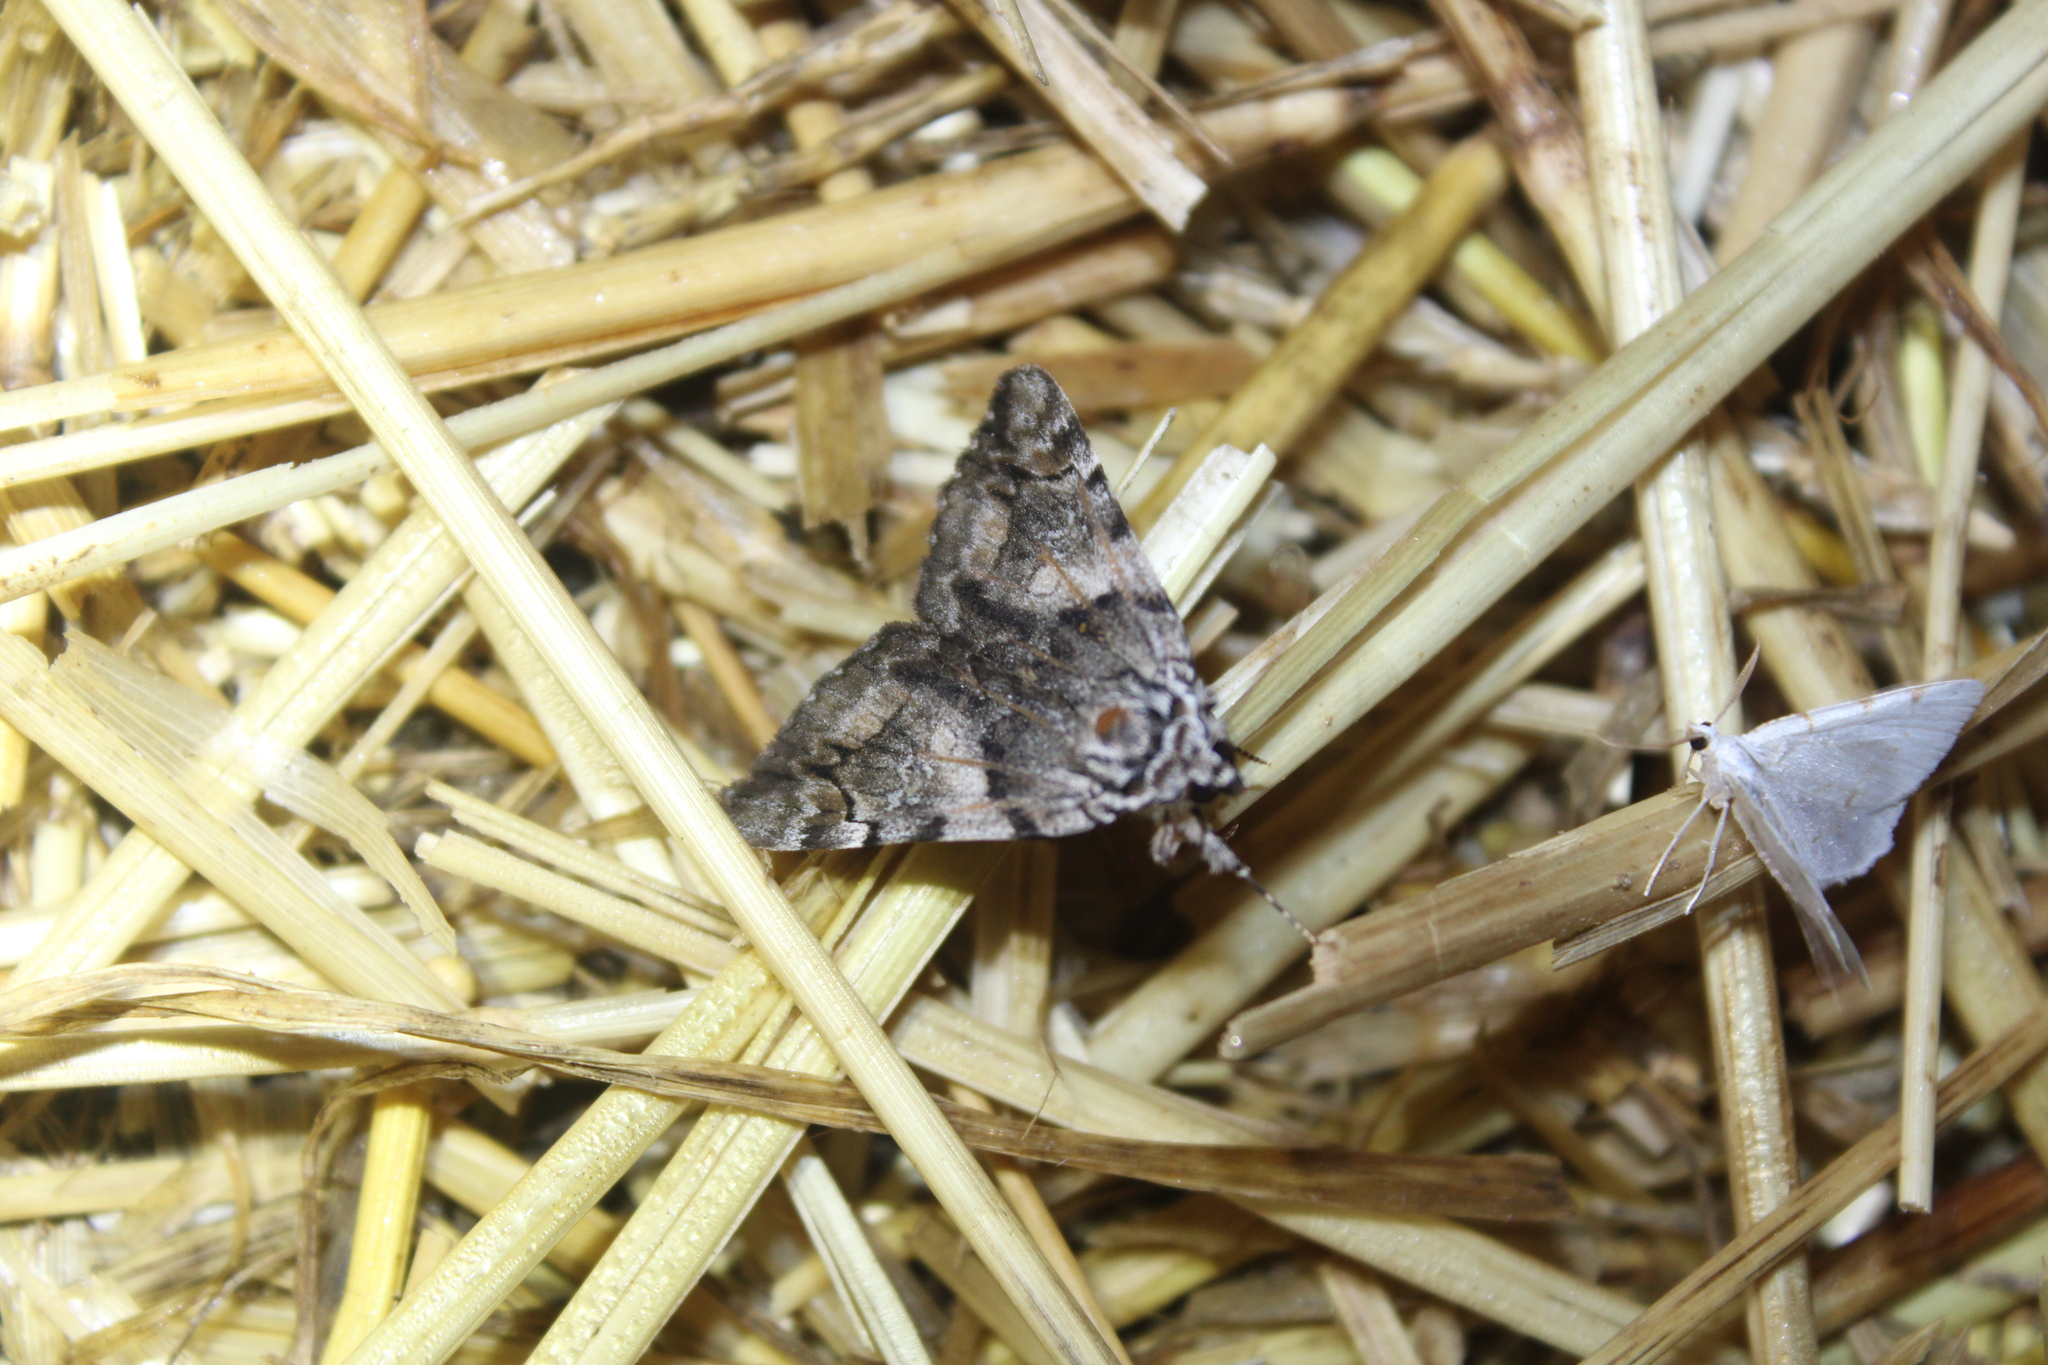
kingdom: Animalia
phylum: Arthropoda
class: Insecta
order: Lepidoptera
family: Erebidae
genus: Catocala
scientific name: Catocala blandula
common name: Charming underwing
